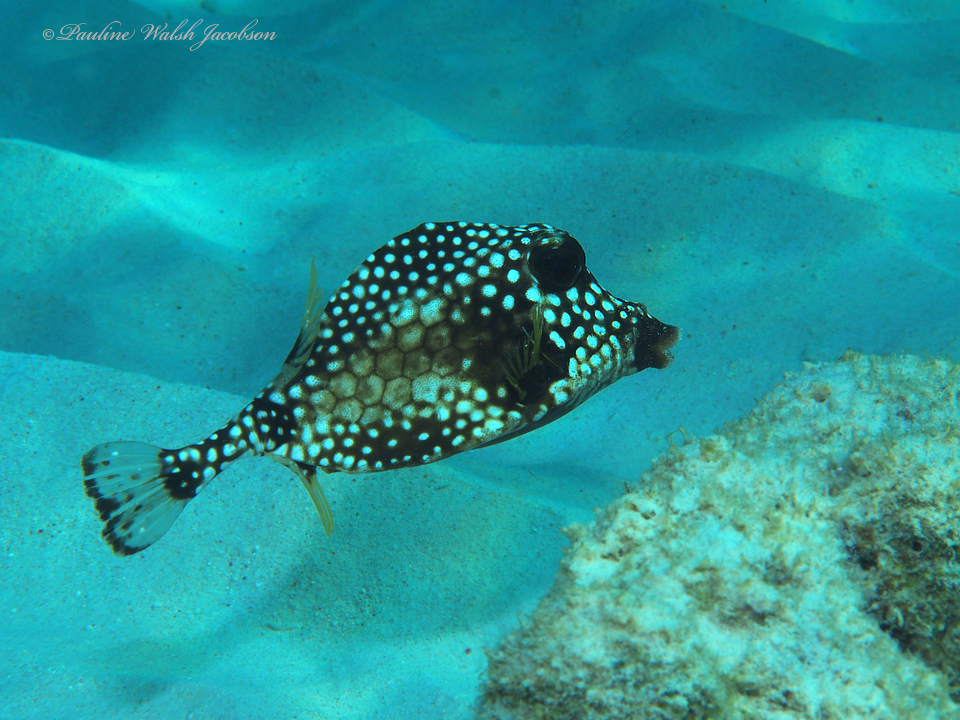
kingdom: Animalia
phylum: Chordata
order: Tetraodontiformes
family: Ostraciidae
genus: Lactophrys
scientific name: Lactophrys triqueter
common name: Smooth trunkfish
